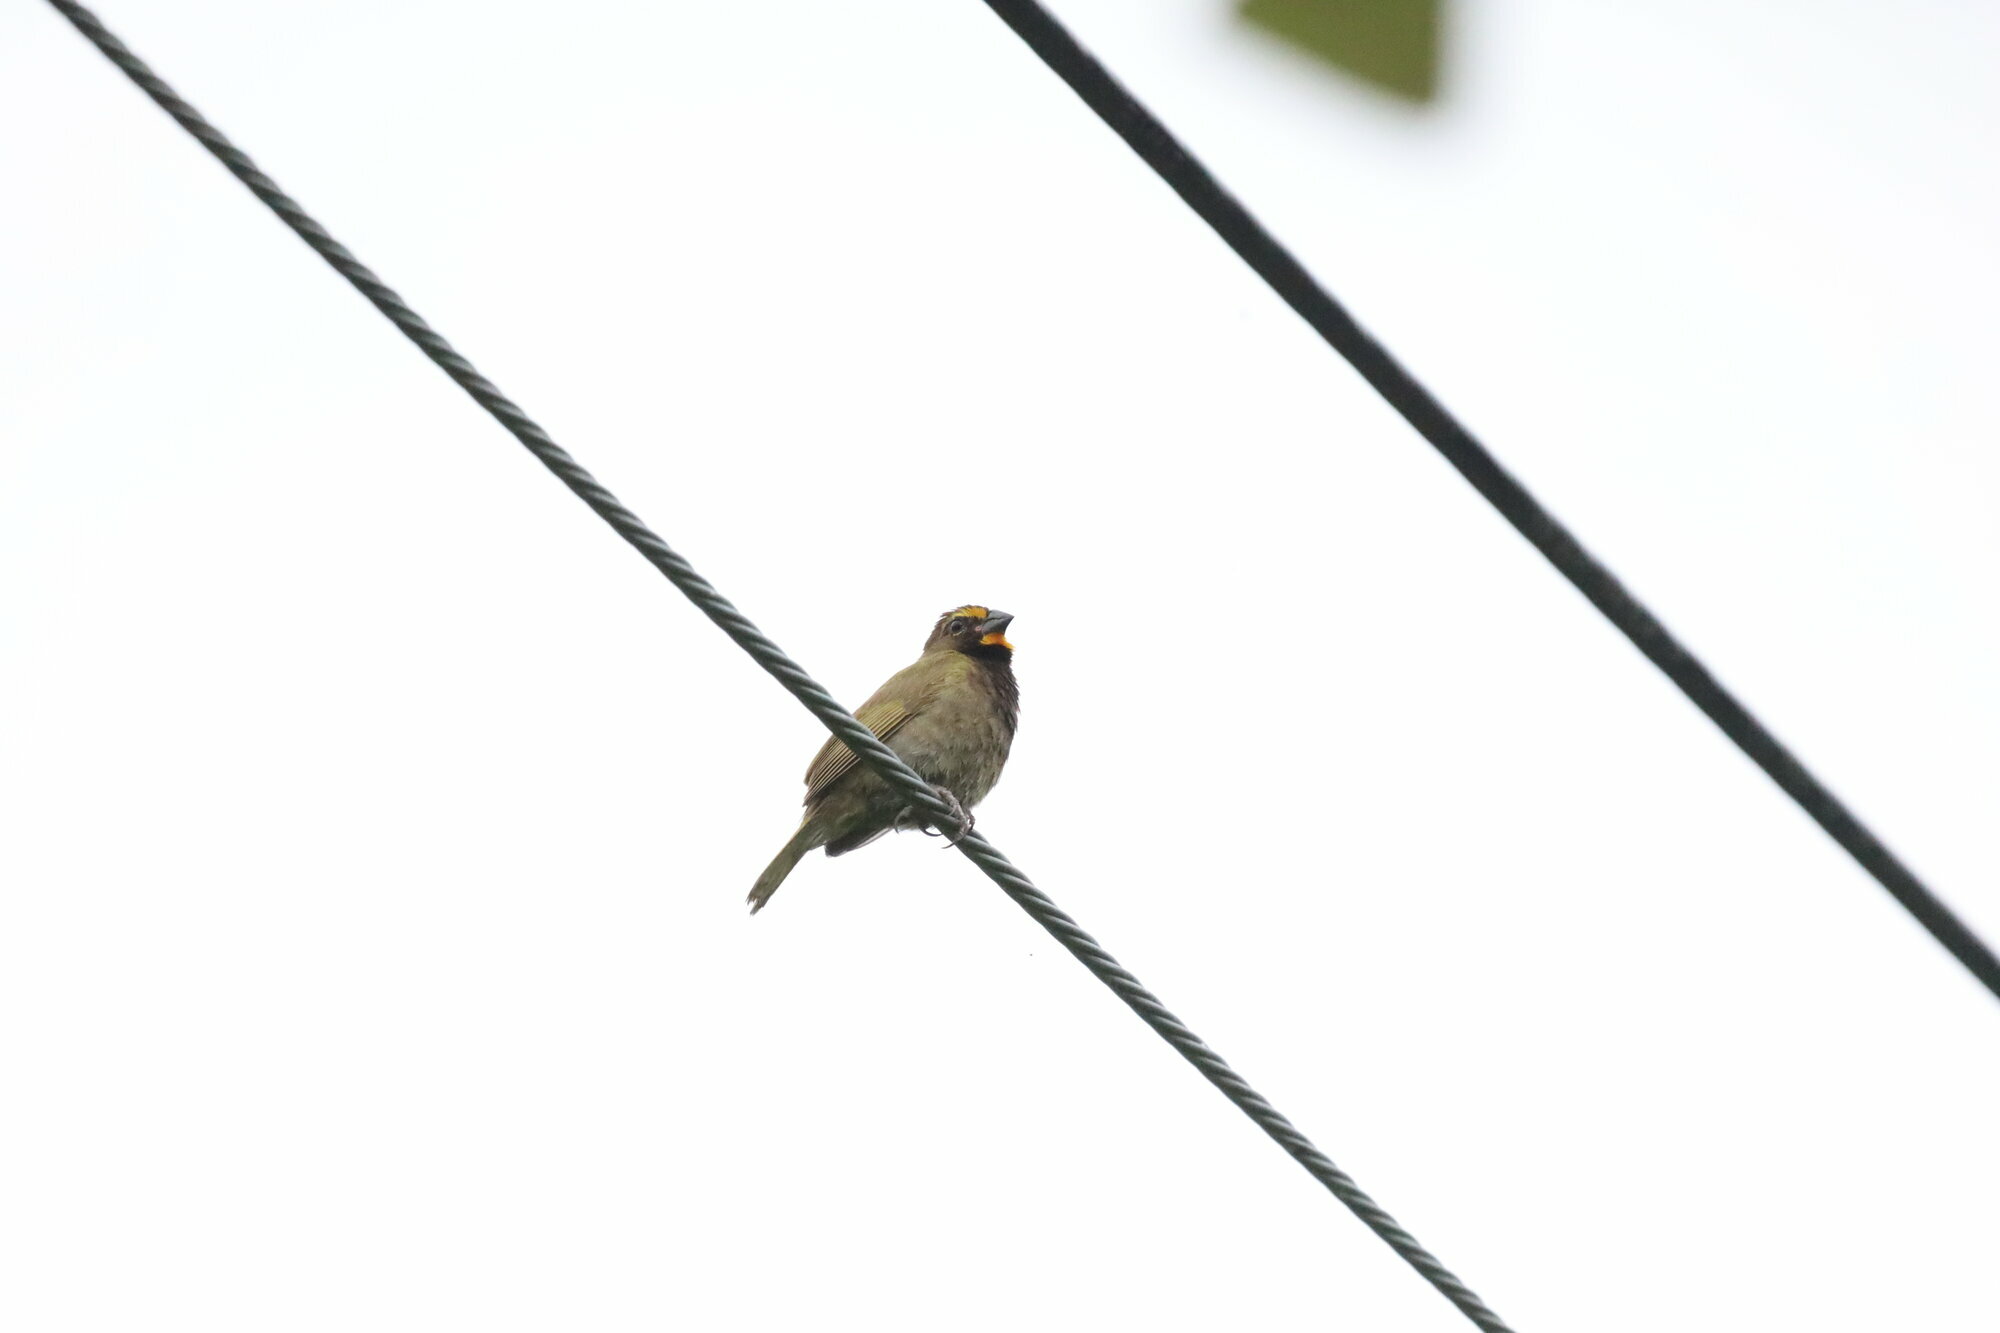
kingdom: Animalia
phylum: Chordata
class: Aves
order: Passeriformes
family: Thraupidae
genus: Tiaris
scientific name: Tiaris olivaceus
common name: Yellow-faced grassquit
